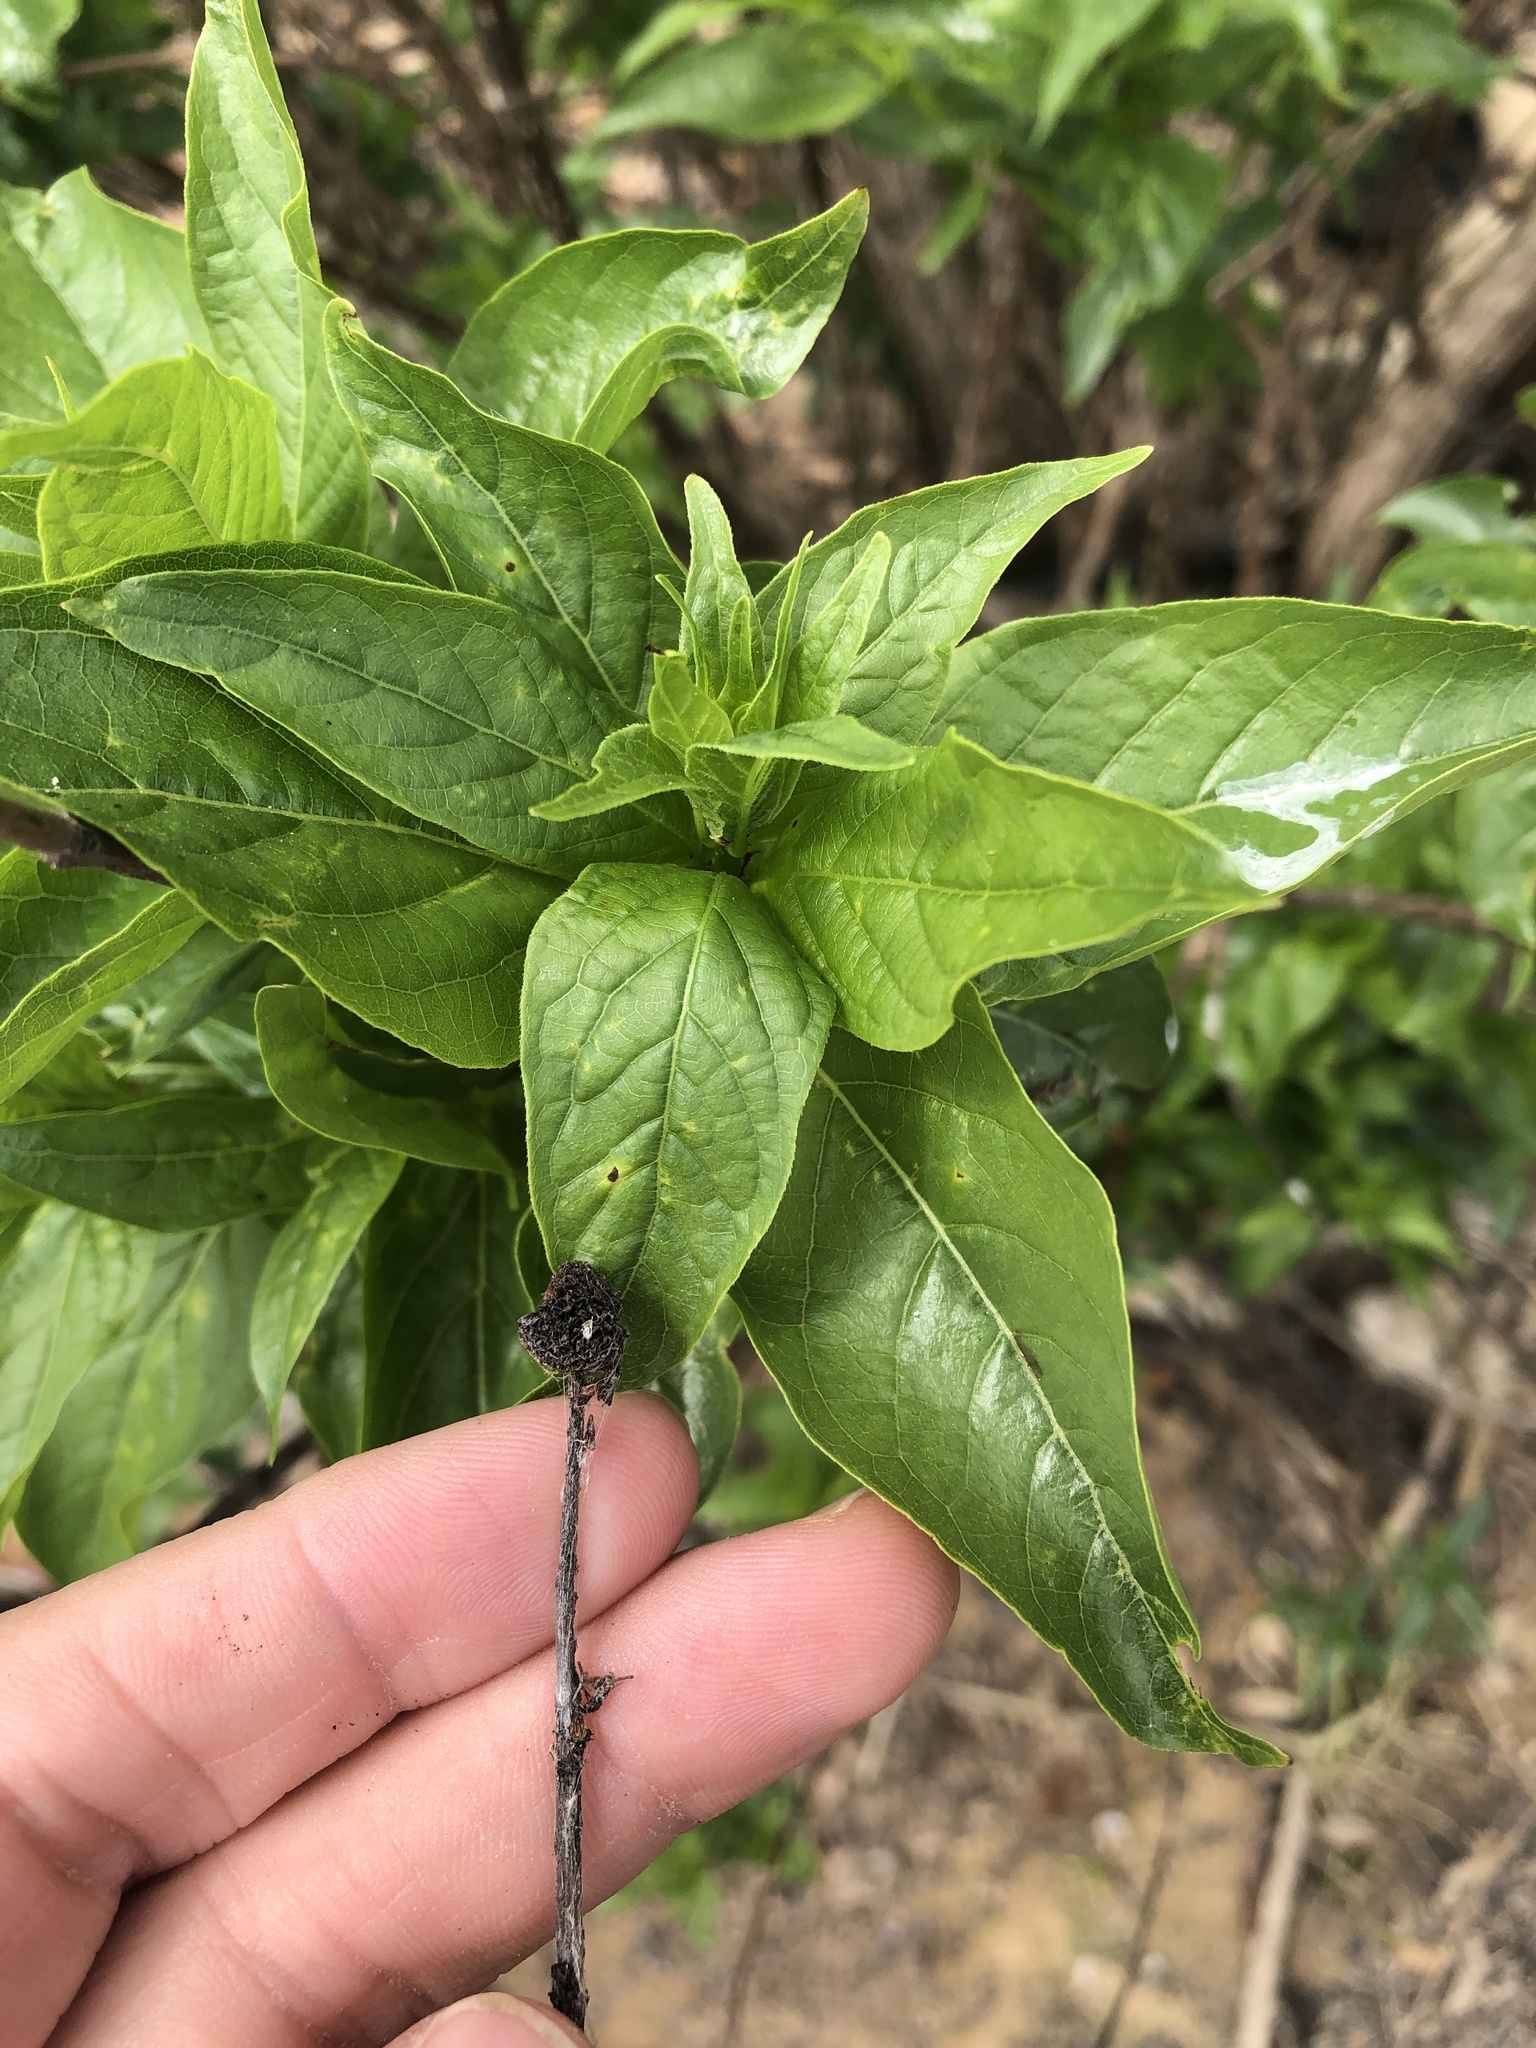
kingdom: Plantae
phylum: Tracheophyta
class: Magnoliopsida
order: Gentianales
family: Rubiaceae
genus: Cephalanthus
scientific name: Cephalanthus occidentalis
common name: Button-willow
